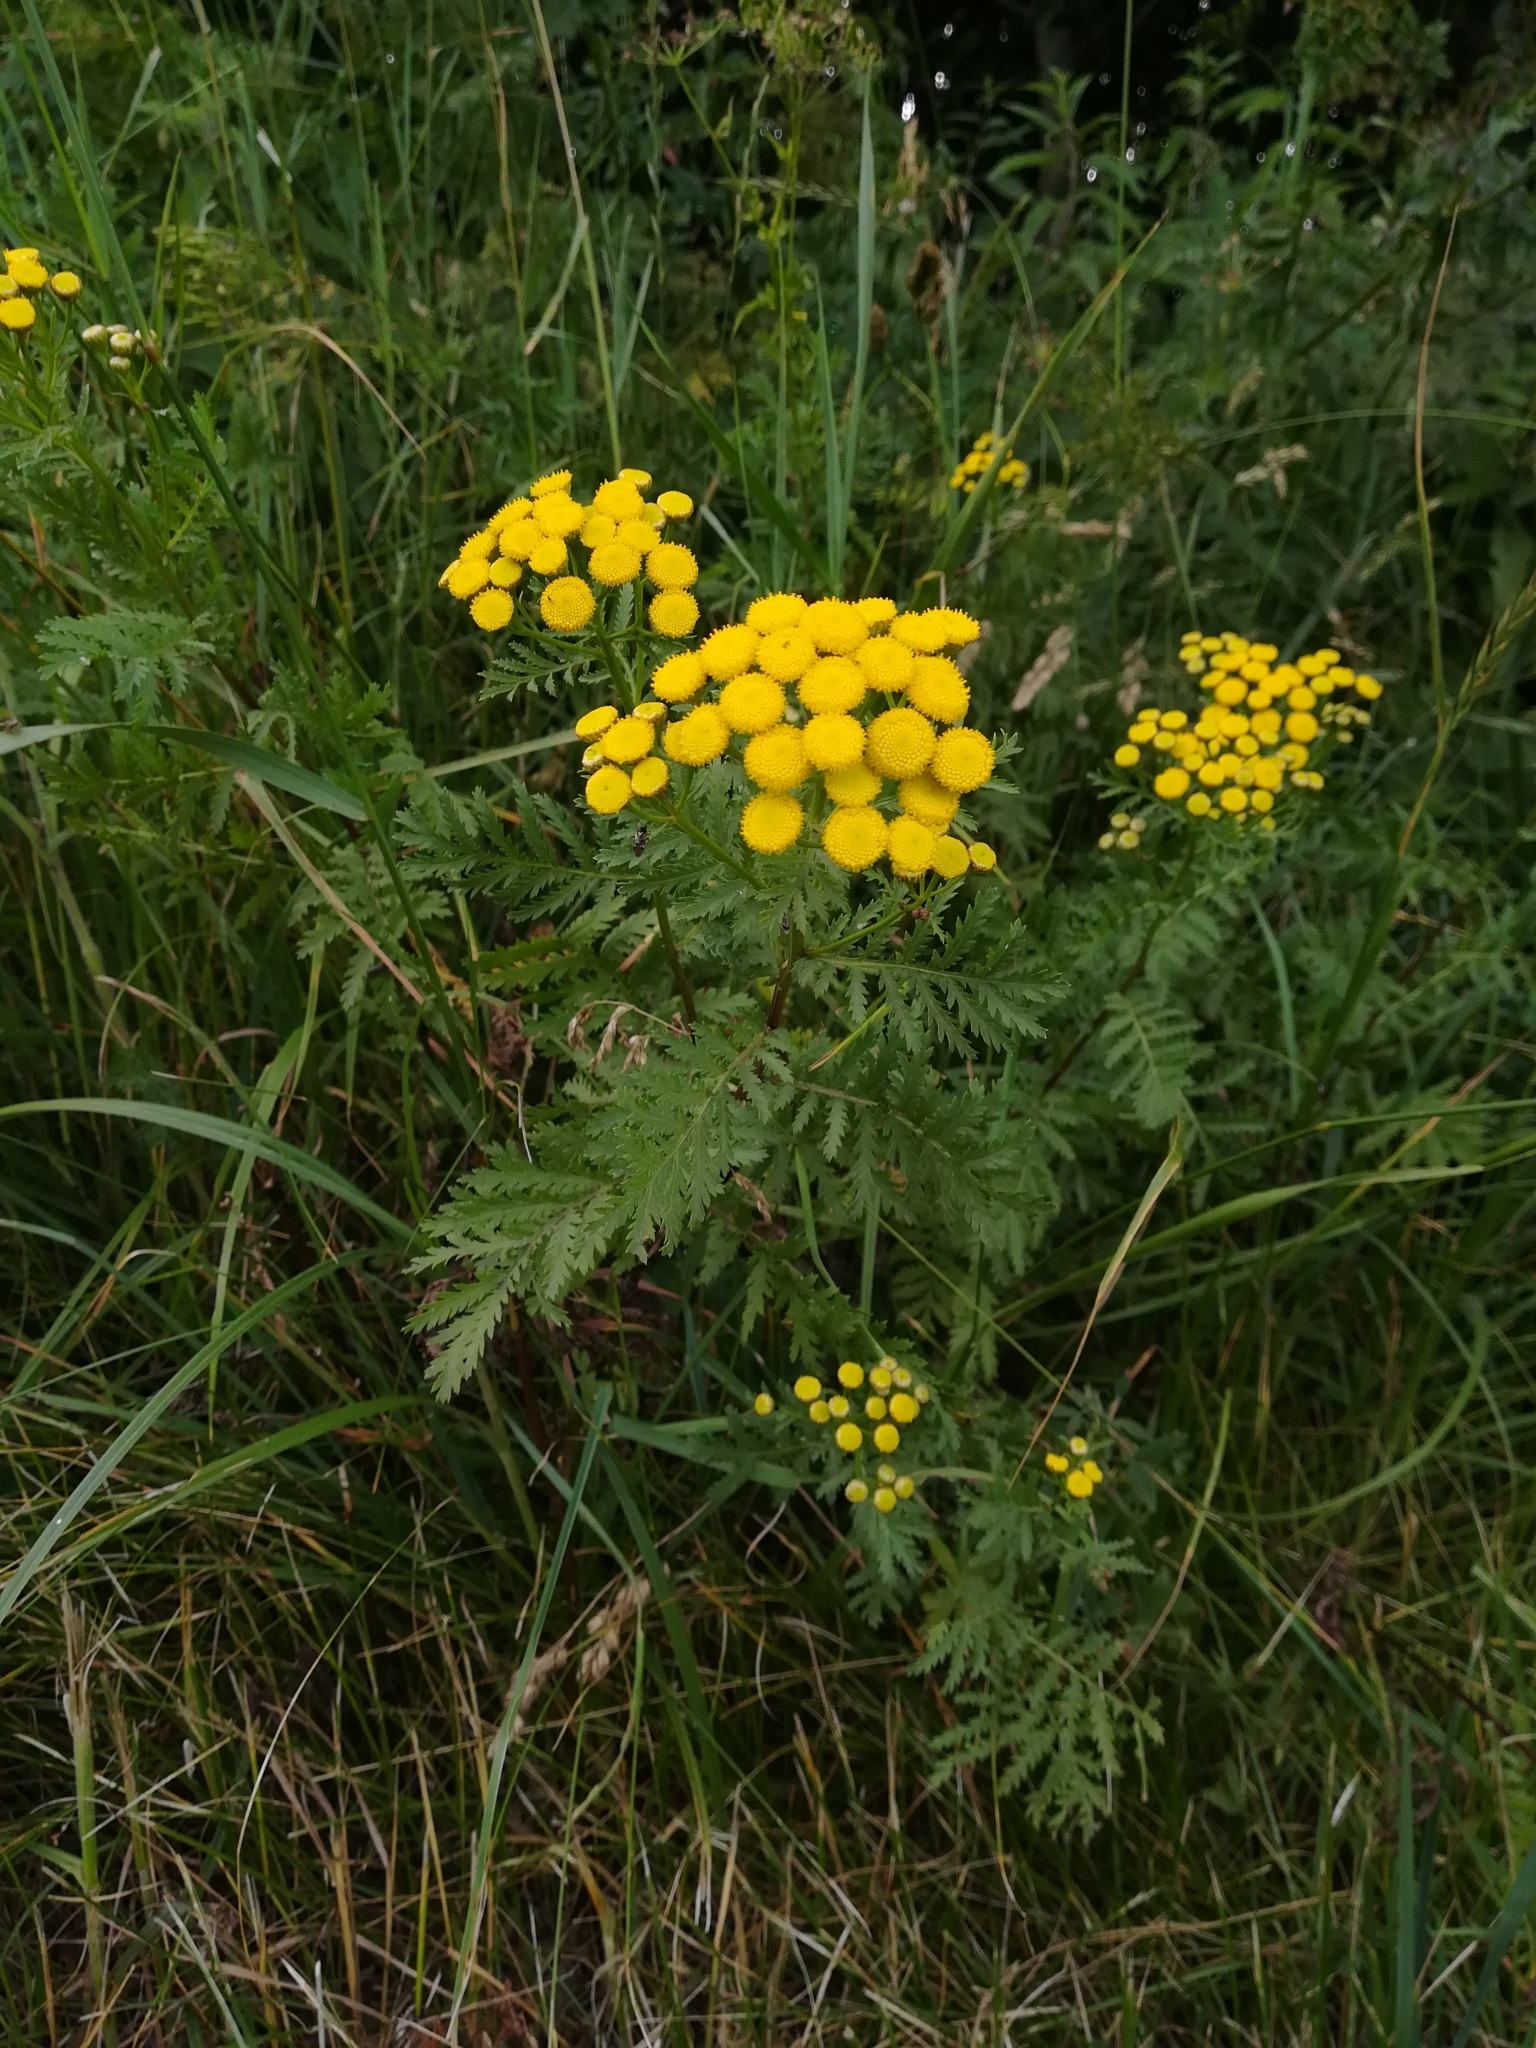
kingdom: Plantae
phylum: Tracheophyta
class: Magnoliopsida
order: Asterales
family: Asteraceae
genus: Tanacetum
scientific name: Tanacetum vulgare
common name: Common tansy
